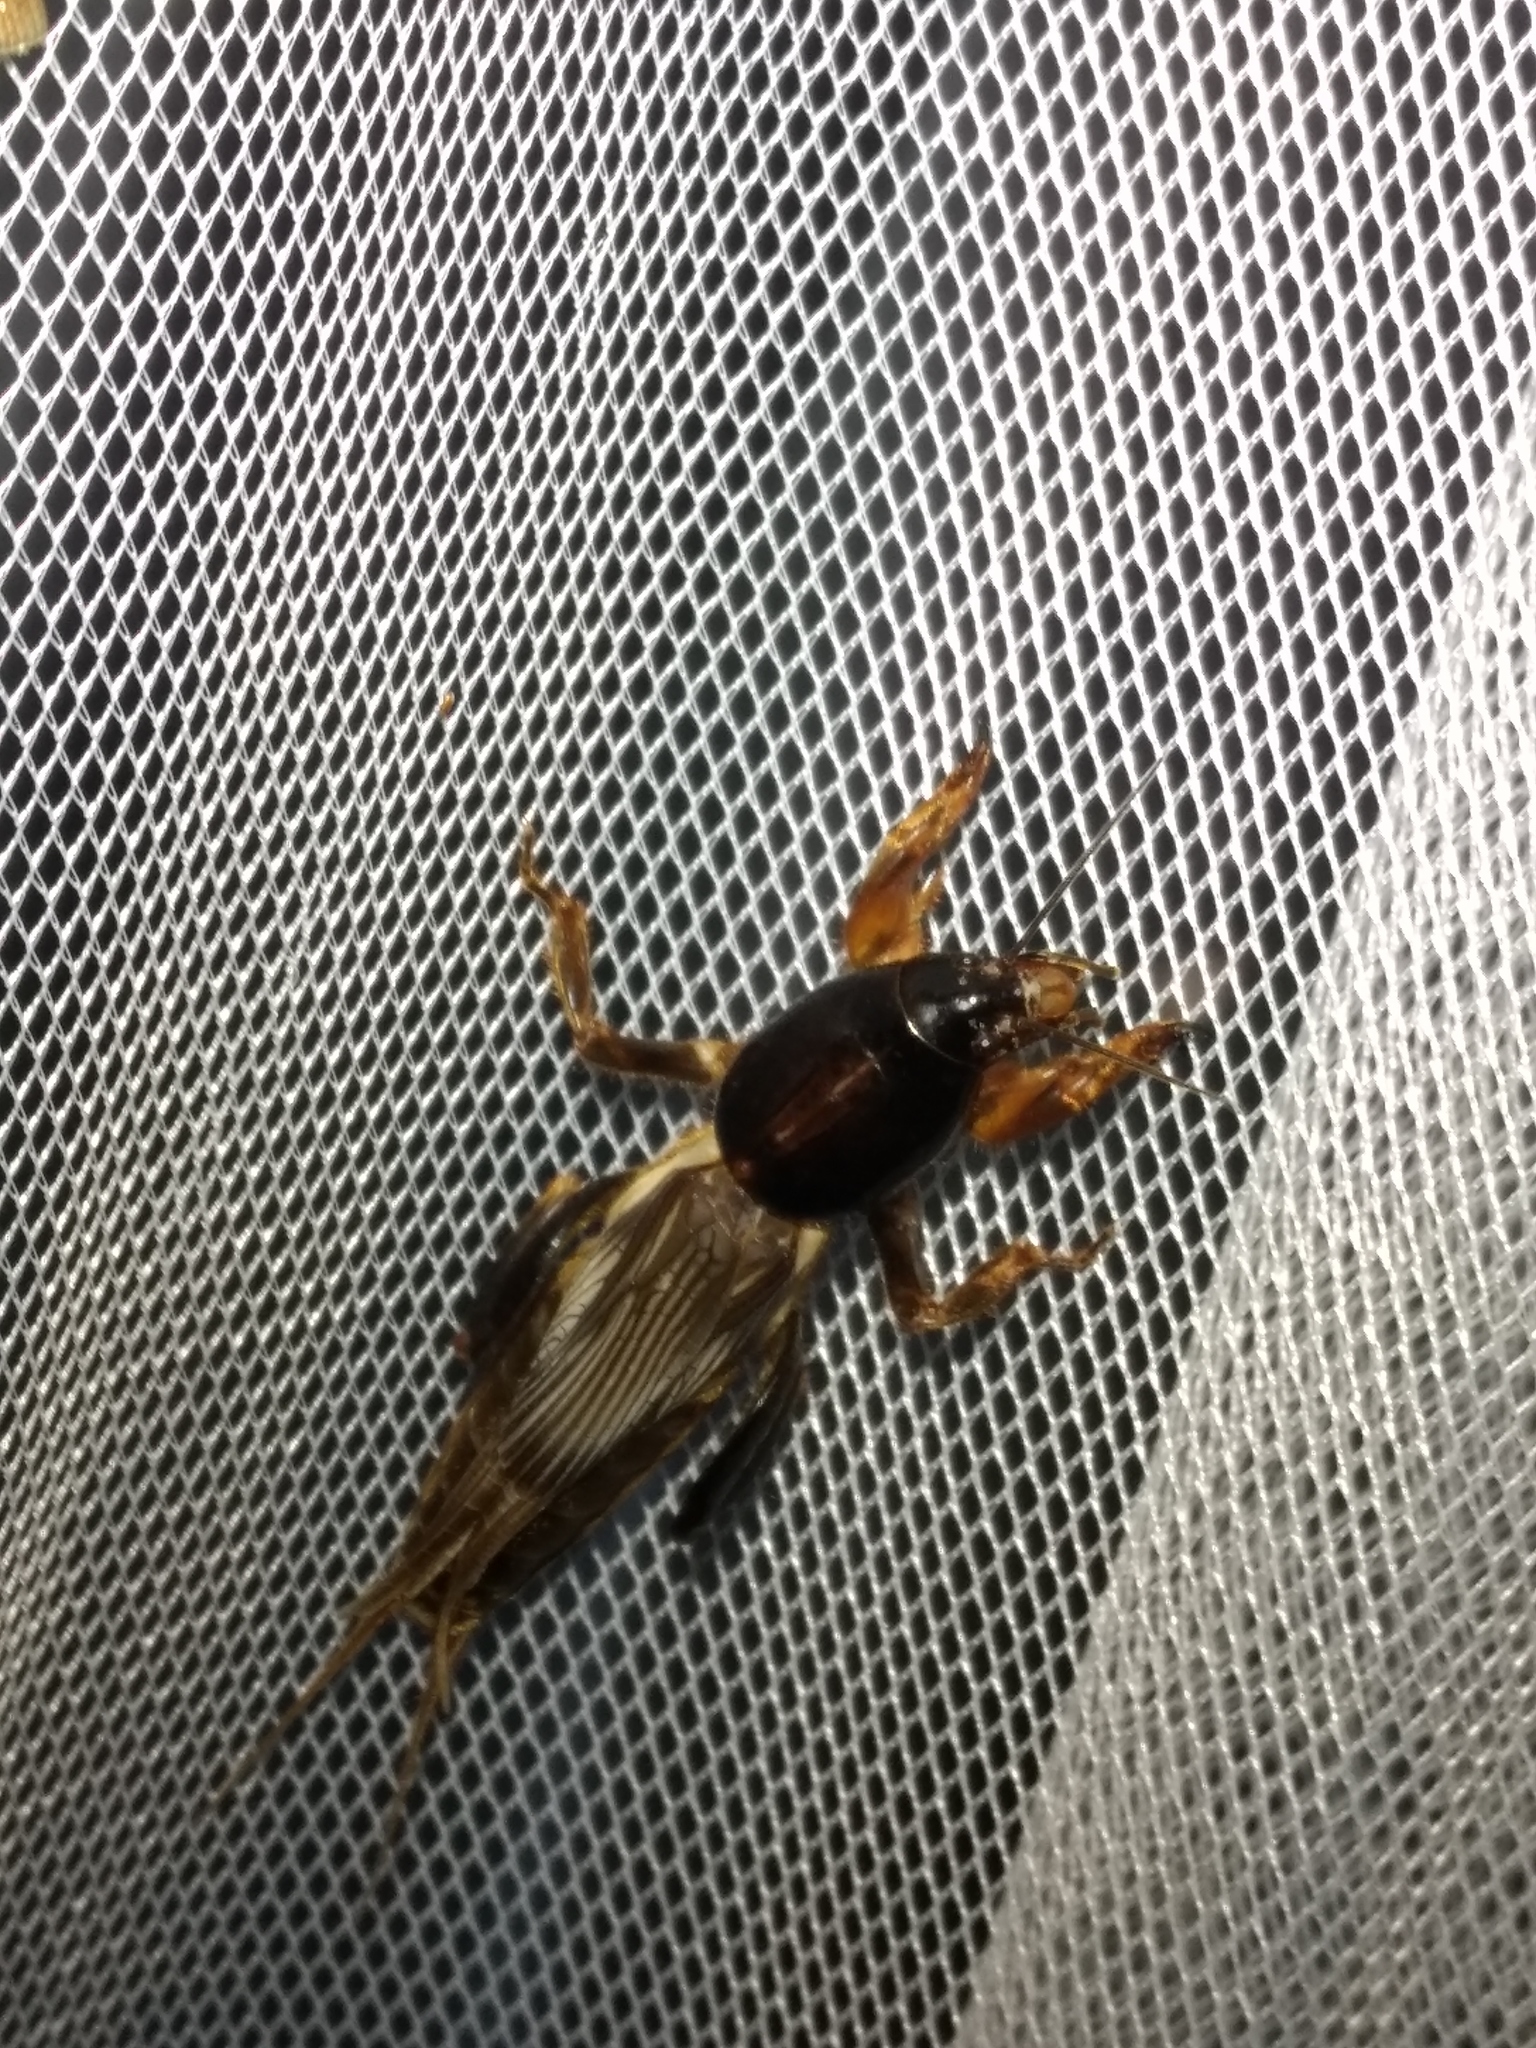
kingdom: Animalia
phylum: Arthropoda
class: Insecta
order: Orthoptera
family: Gryllotalpidae
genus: Gryllotalpa
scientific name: Gryllotalpa pluvialis
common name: Chirping mole cricket
